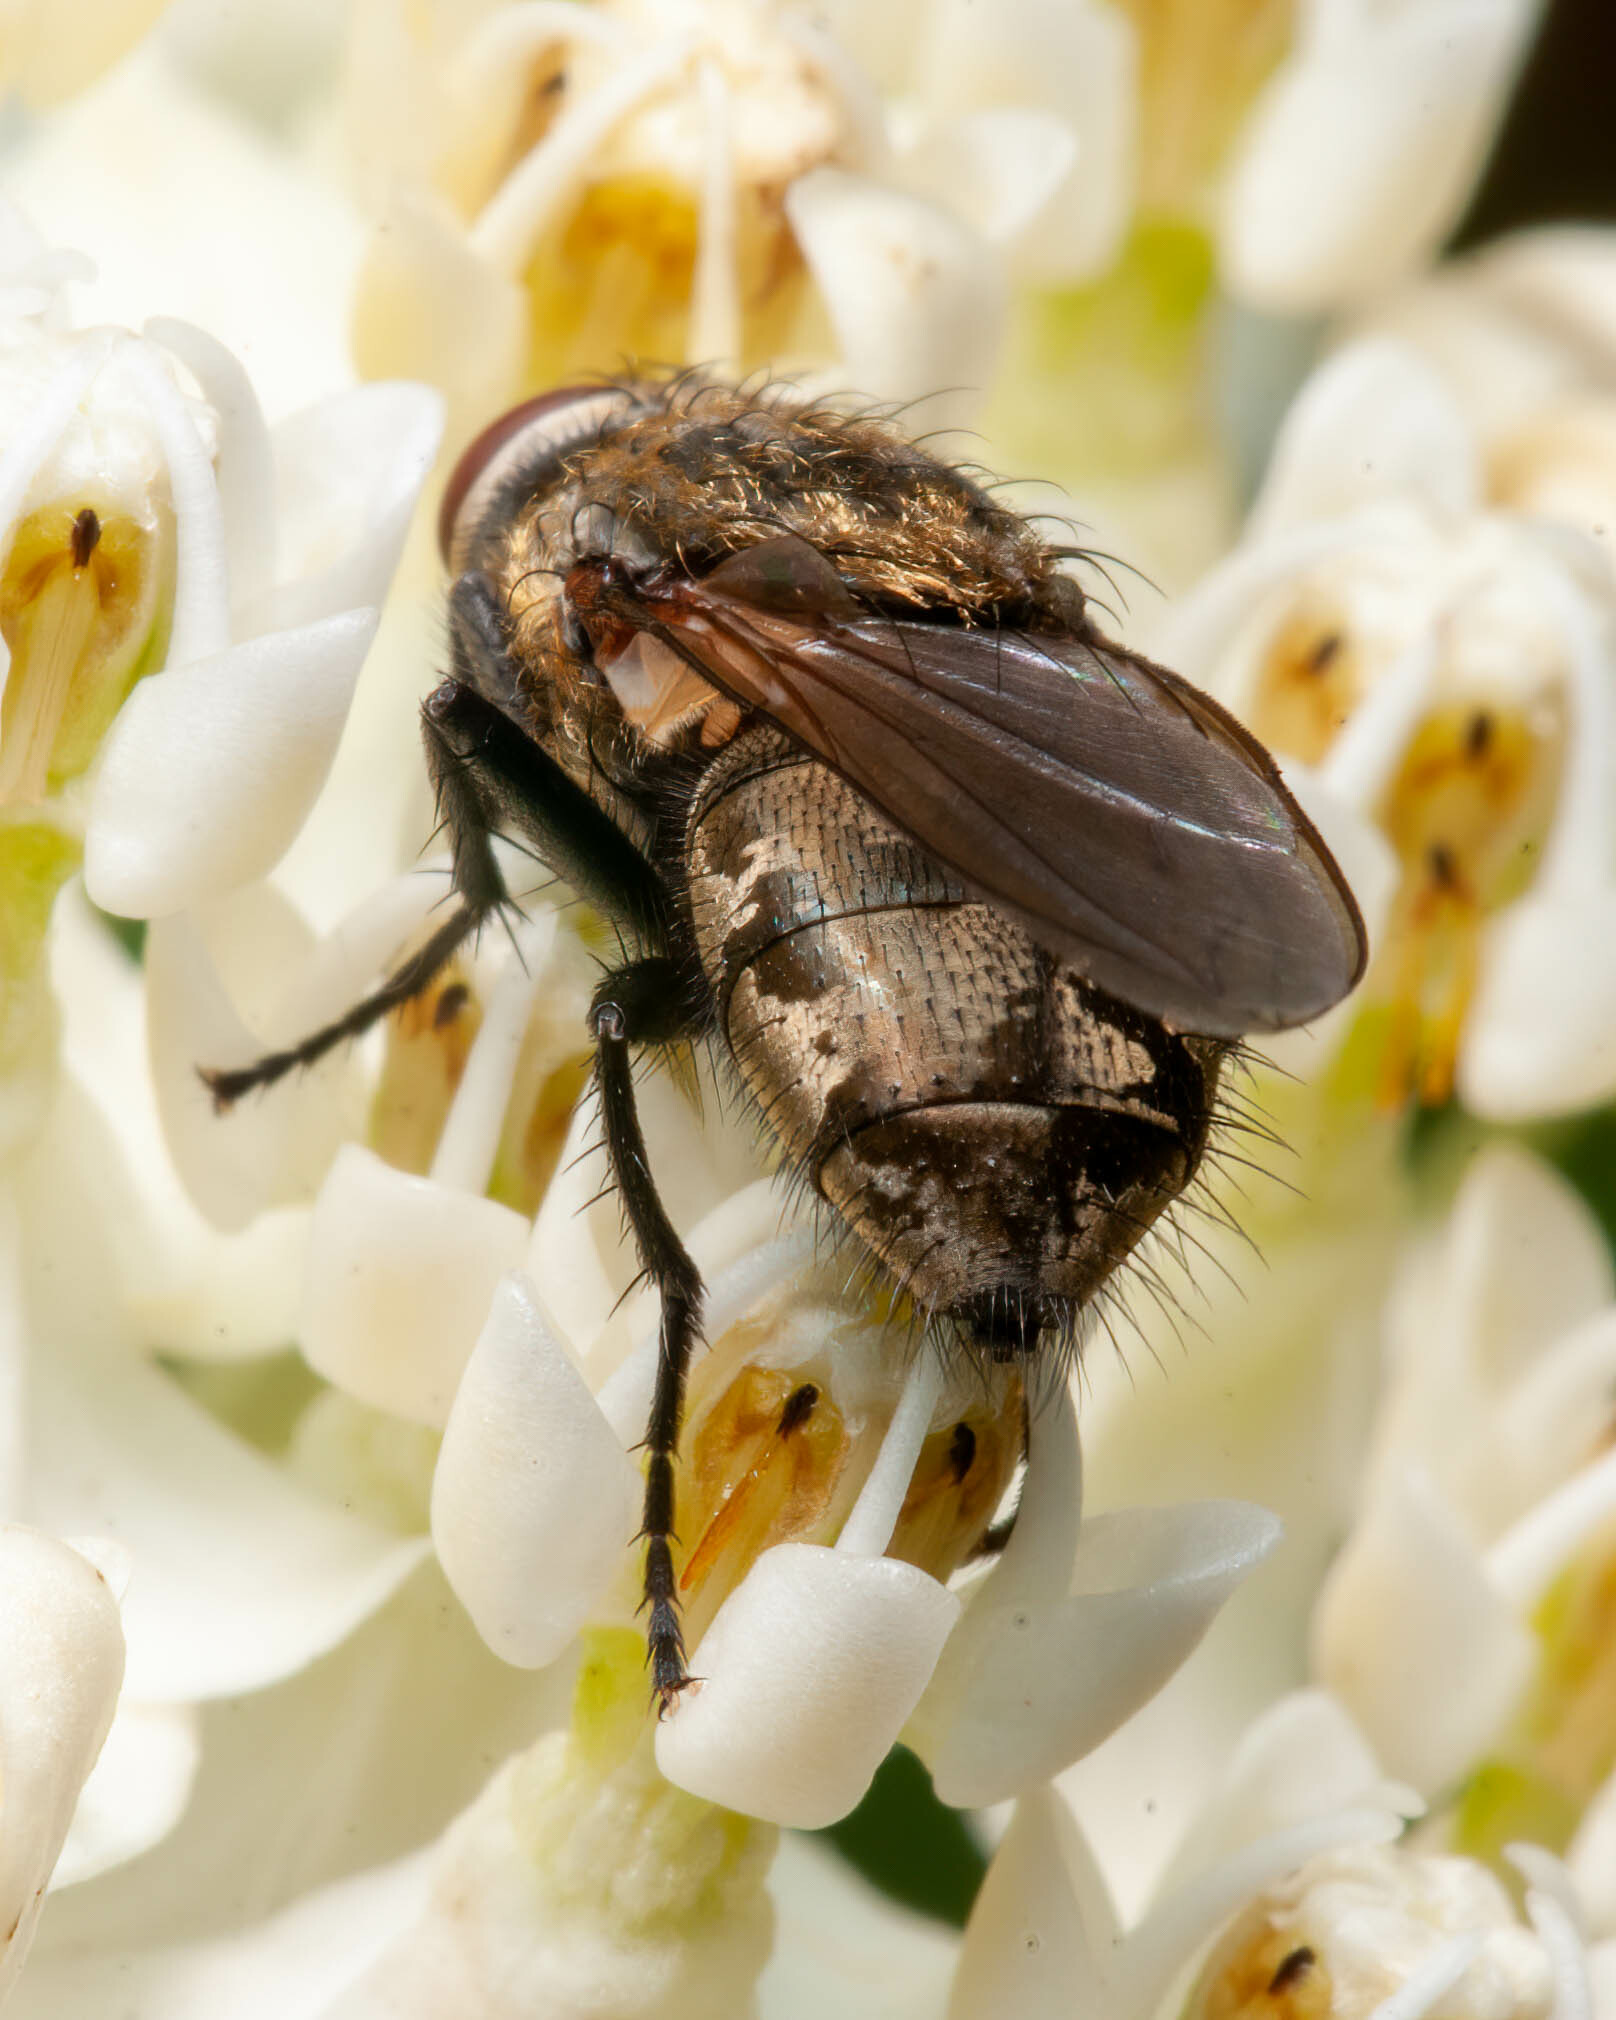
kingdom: Animalia
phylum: Arthropoda
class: Insecta
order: Diptera
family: Polleniidae
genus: Pollenia
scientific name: Pollenia
